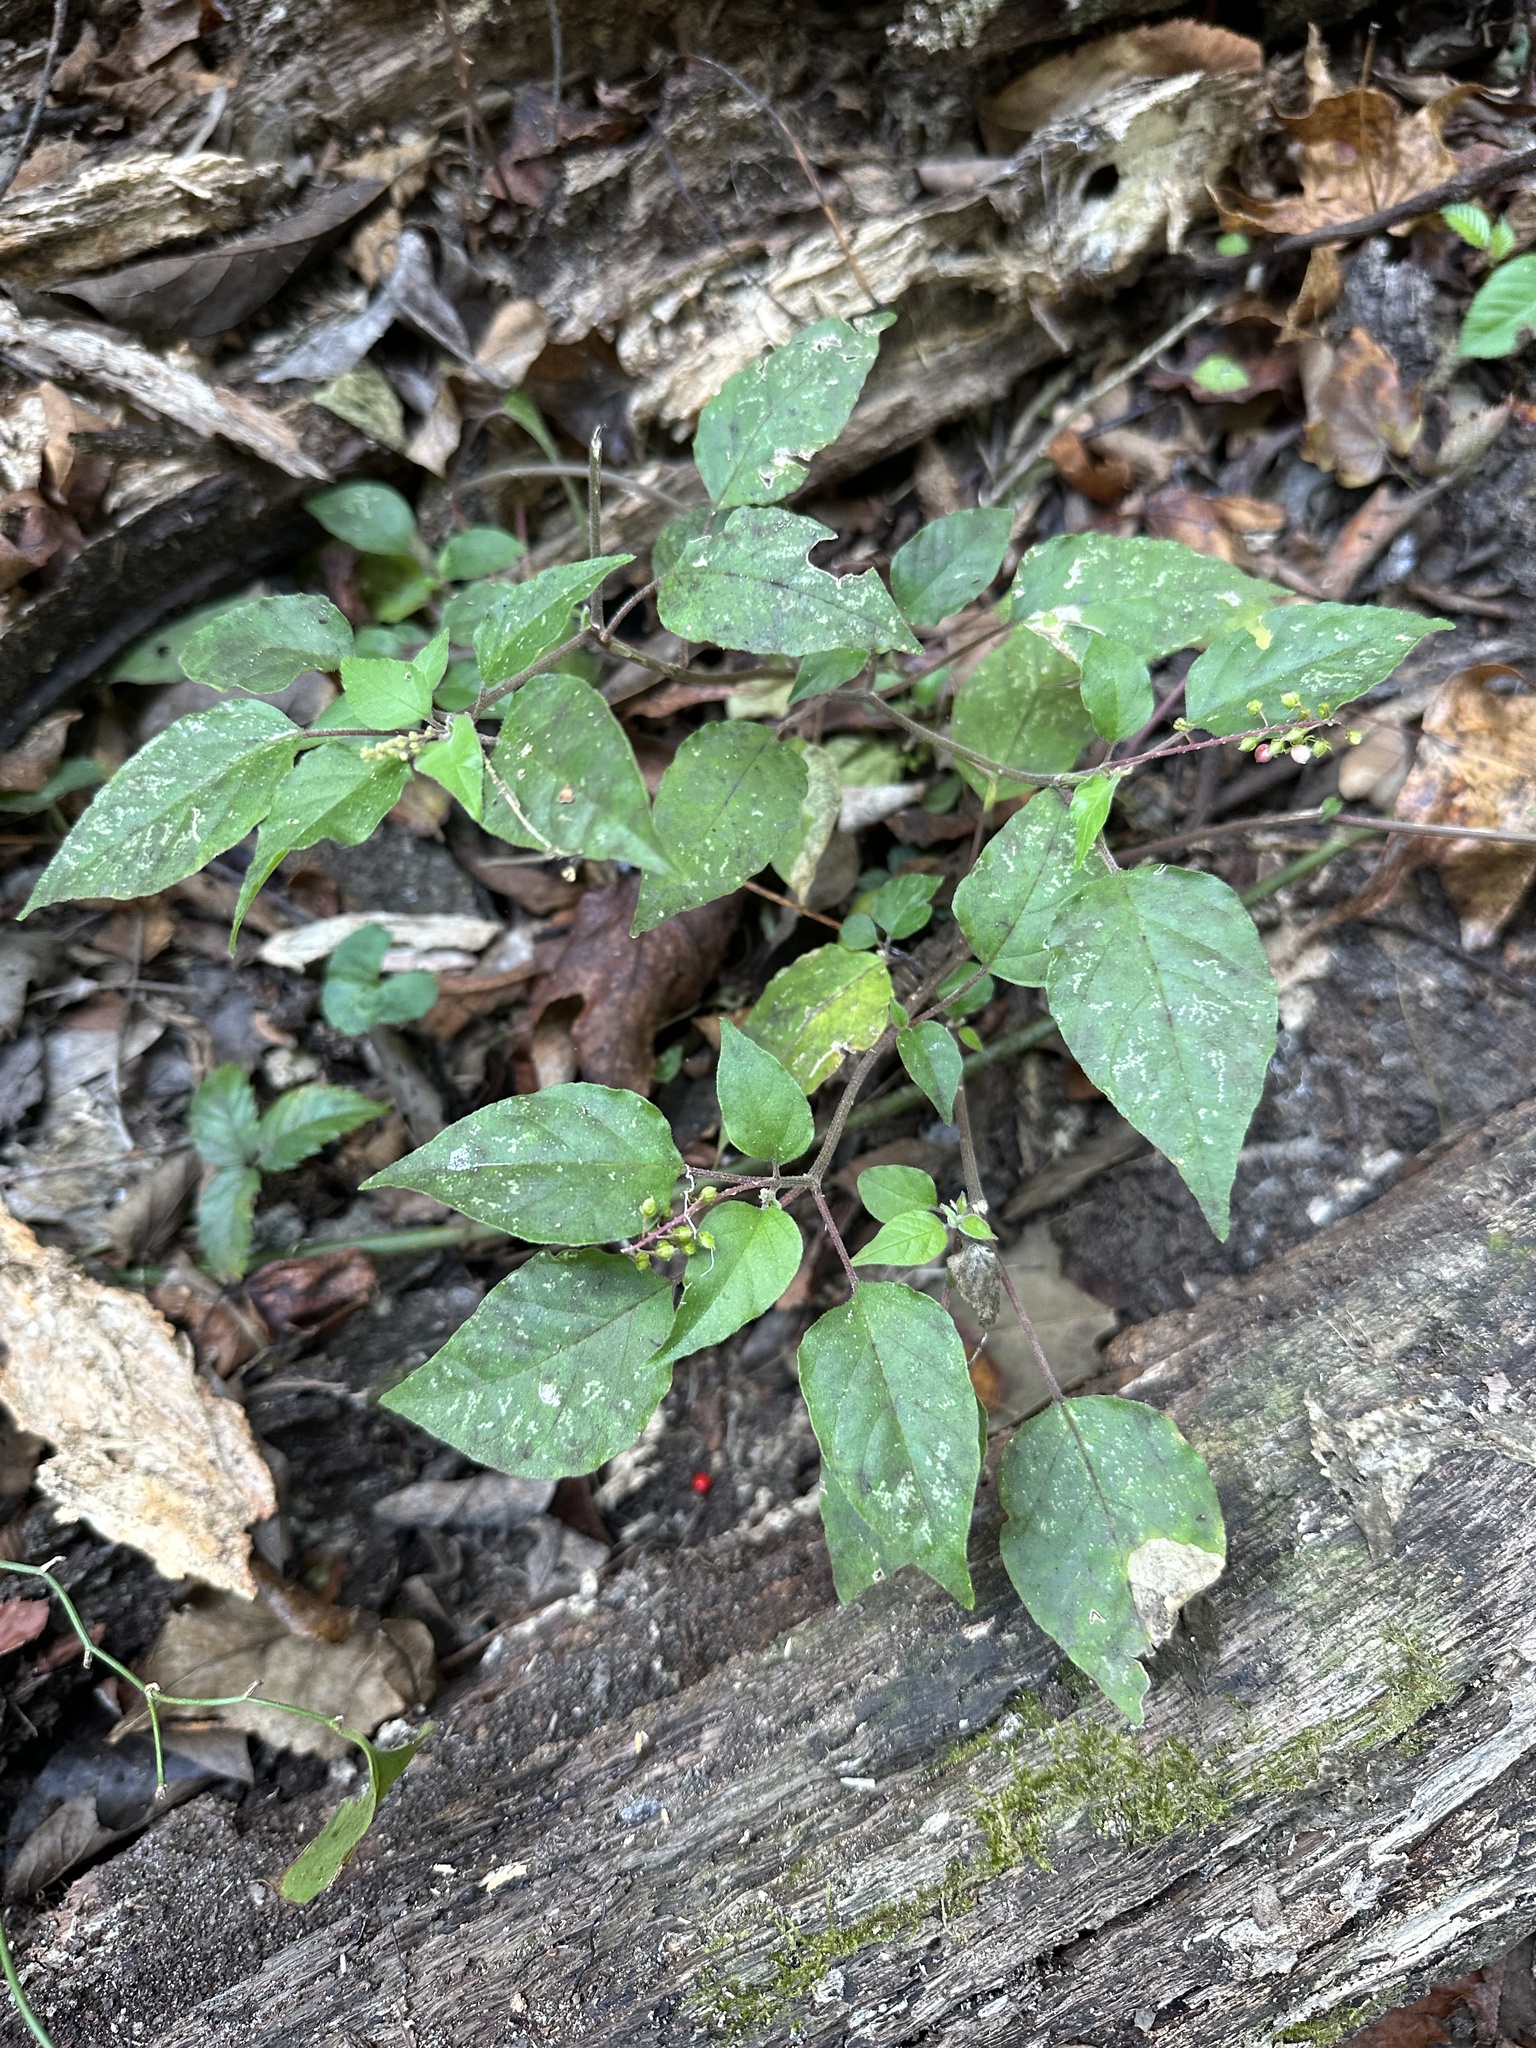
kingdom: Plantae
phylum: Tracheophyta
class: Magnoliopsida
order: Caryophyllales
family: Phytolaccaceae
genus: Rivina
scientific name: Rivina humilis
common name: Rougeplant
